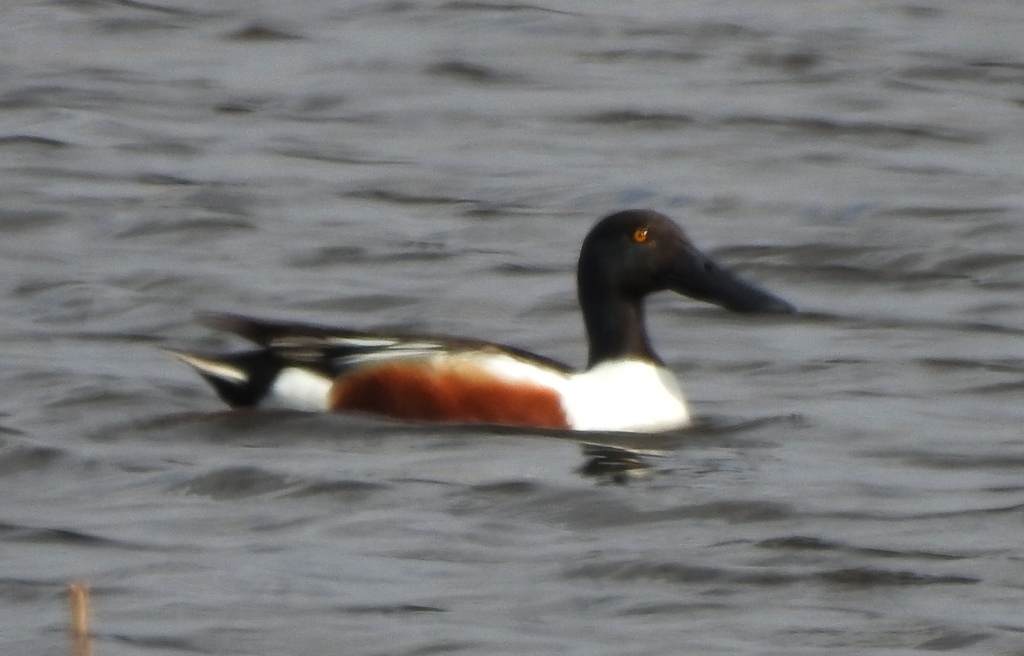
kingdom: Animalia
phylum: Chordata
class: Aves
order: Anseriformes
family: Anatidae
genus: Spatula
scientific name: Spatula clypeata
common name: Northern shoveler
